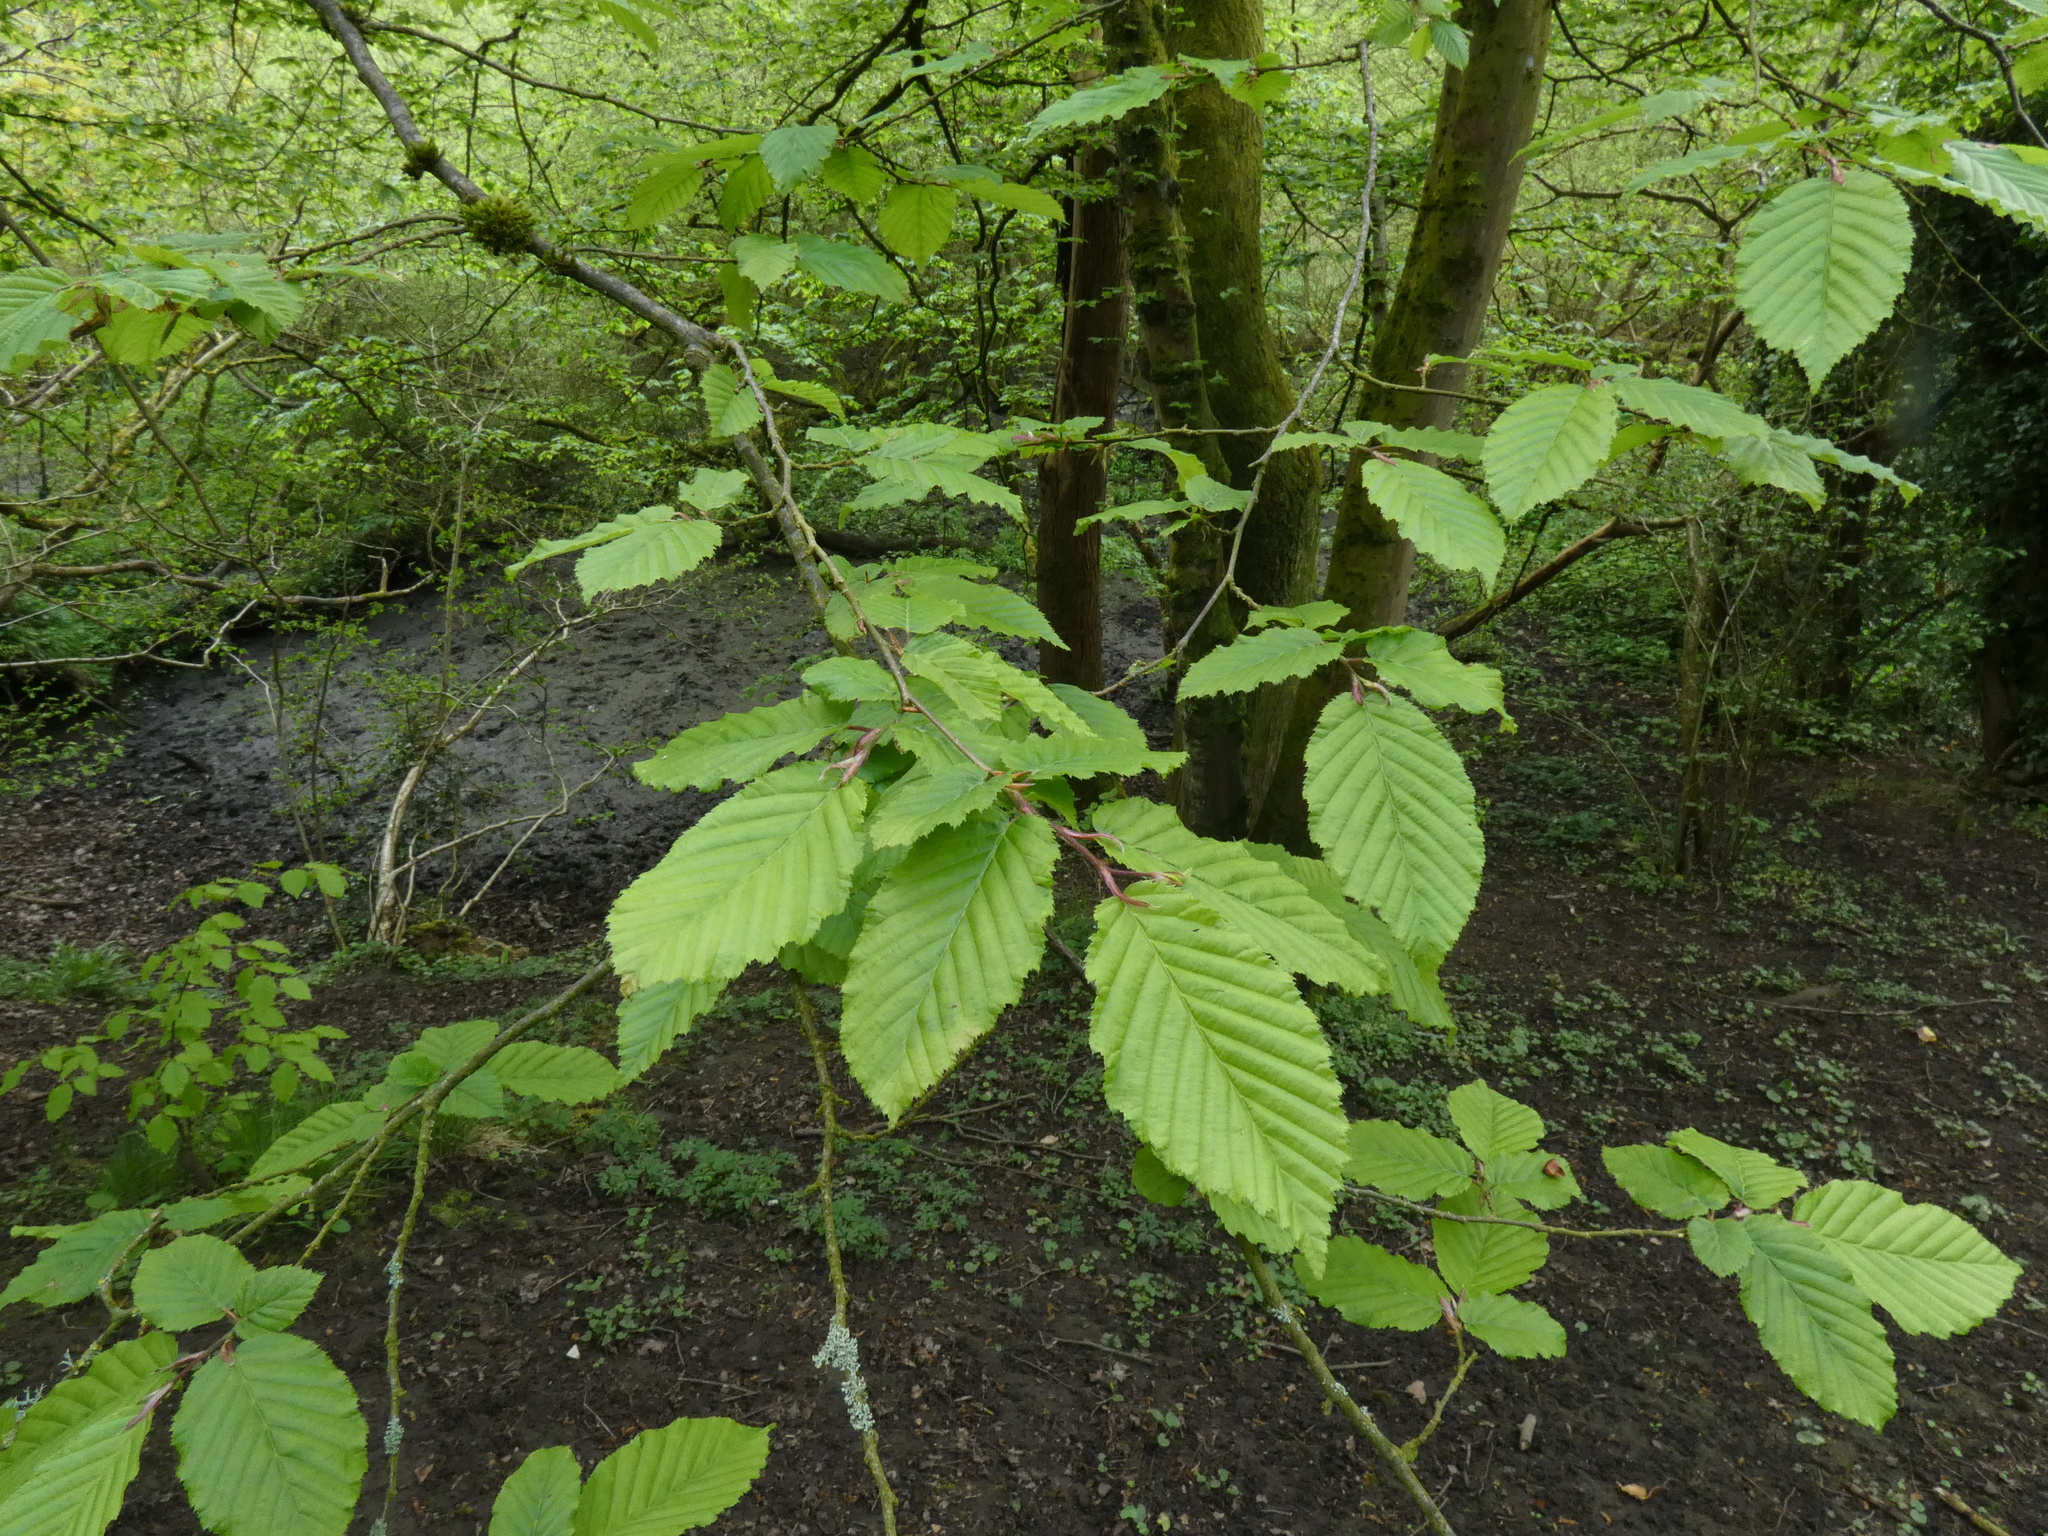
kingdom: Plantae
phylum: Tracheophyta
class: Magnoliopsida
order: Fagales
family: Betulaceae
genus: Carpinus
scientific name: Carpinus betulus
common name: Hornbeam
